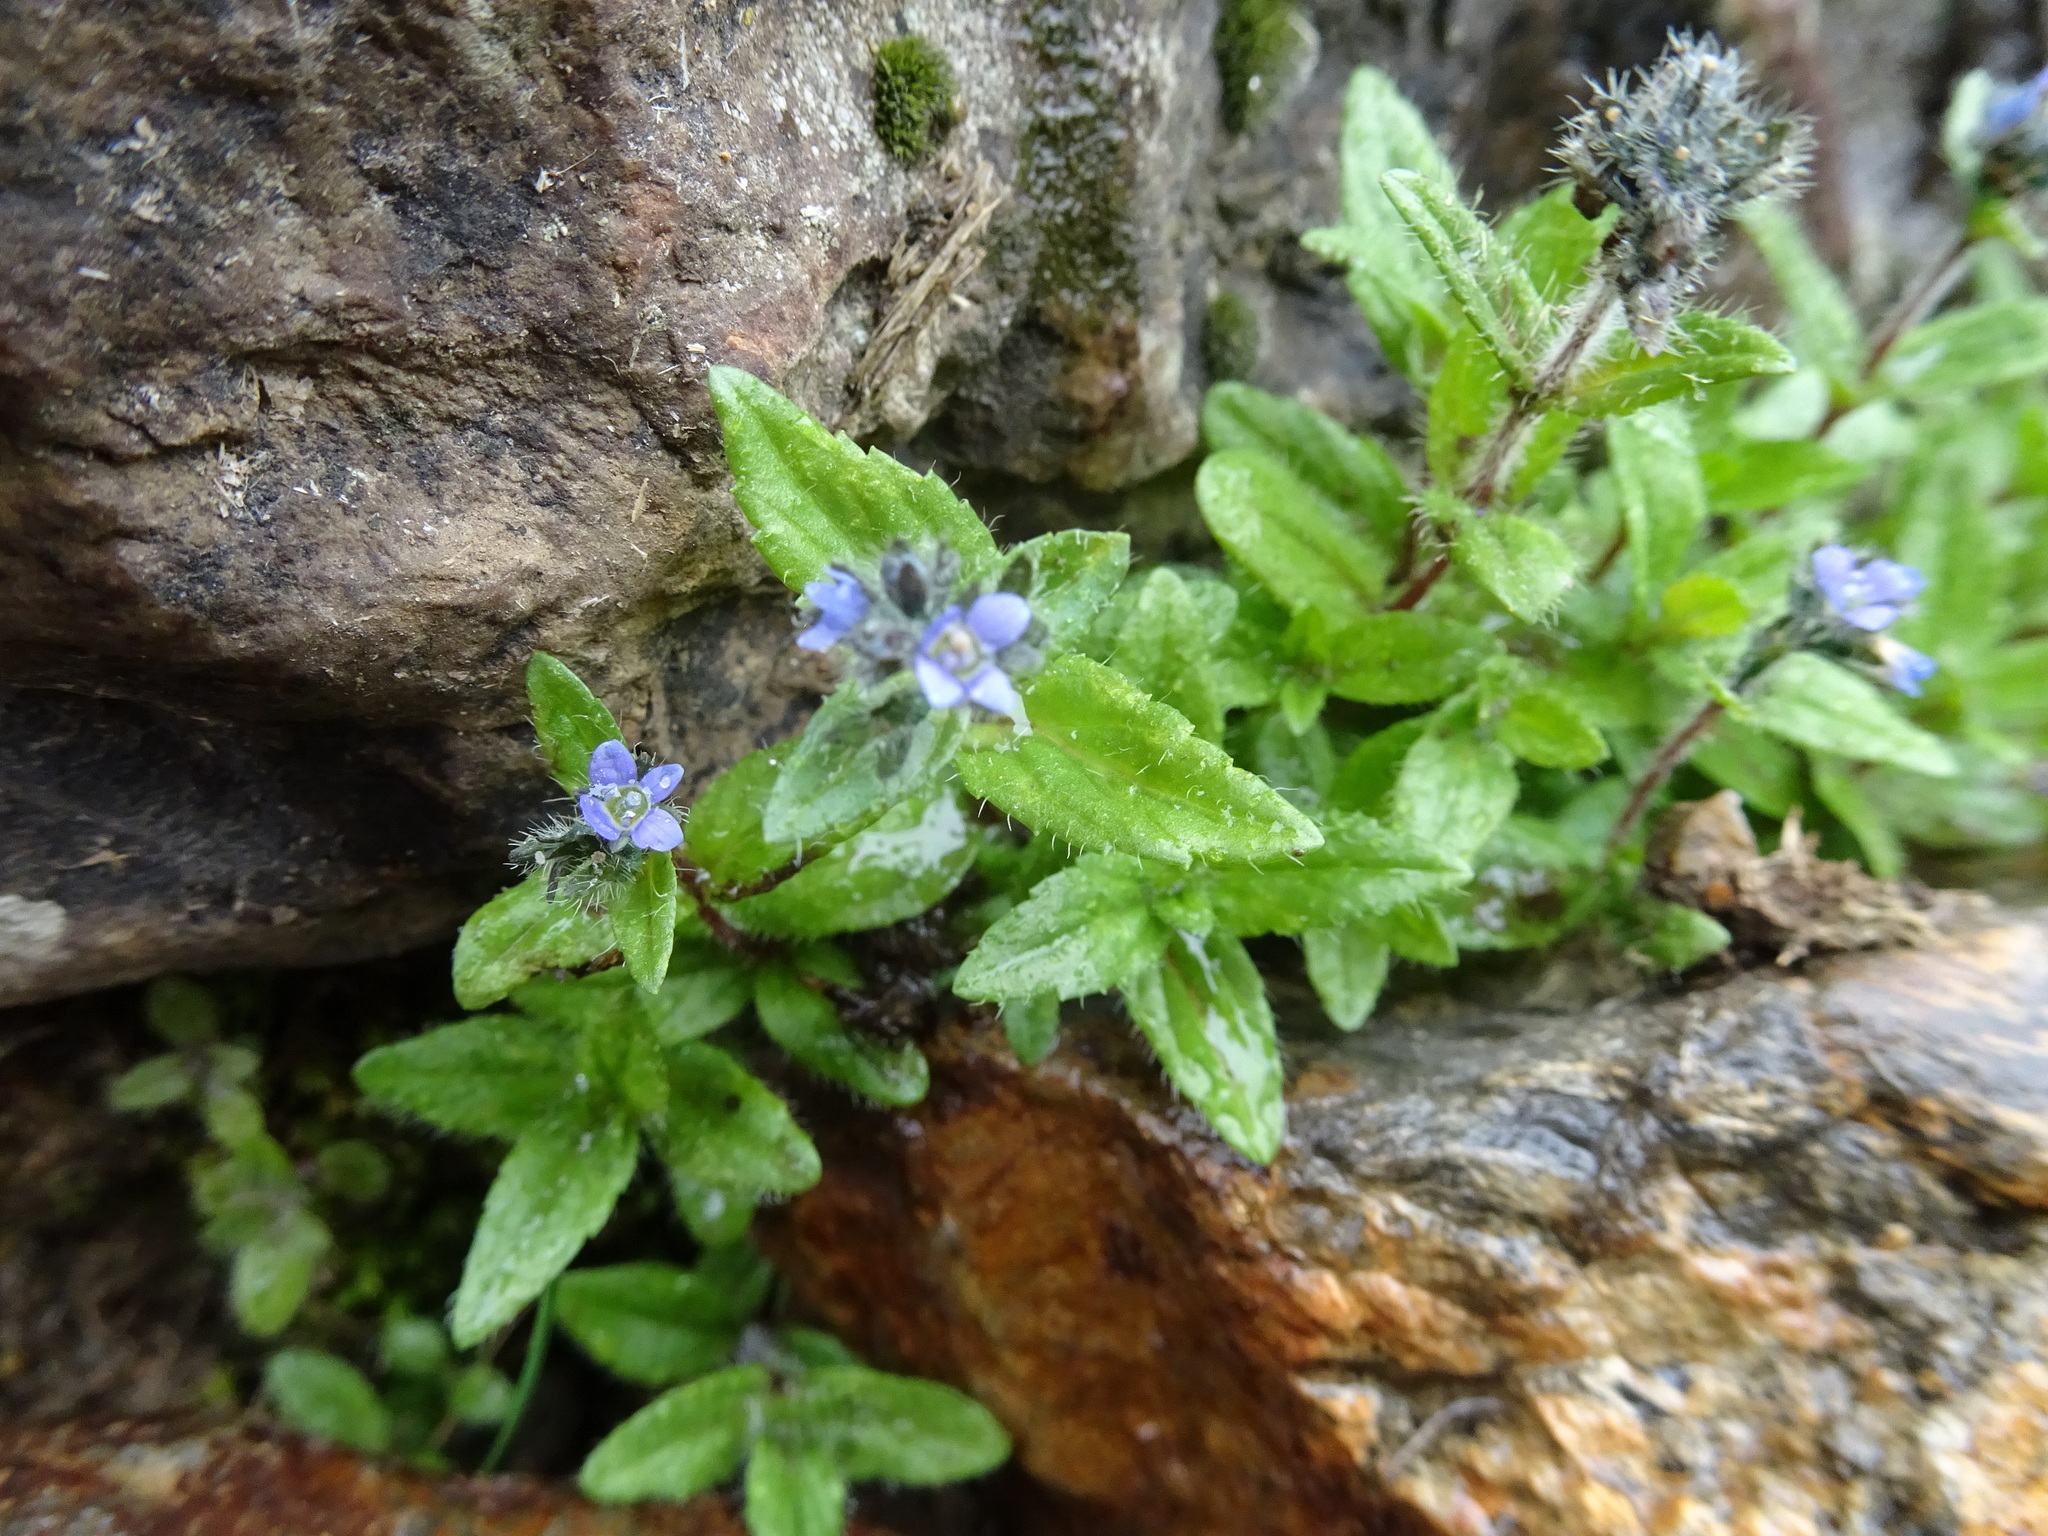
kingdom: Plantae
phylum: Tracheophyta
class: Magnoliopsida
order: Lamiales
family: Plantaginaceae
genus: Veronica
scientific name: Veronica alpina
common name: Alpine speedwell
